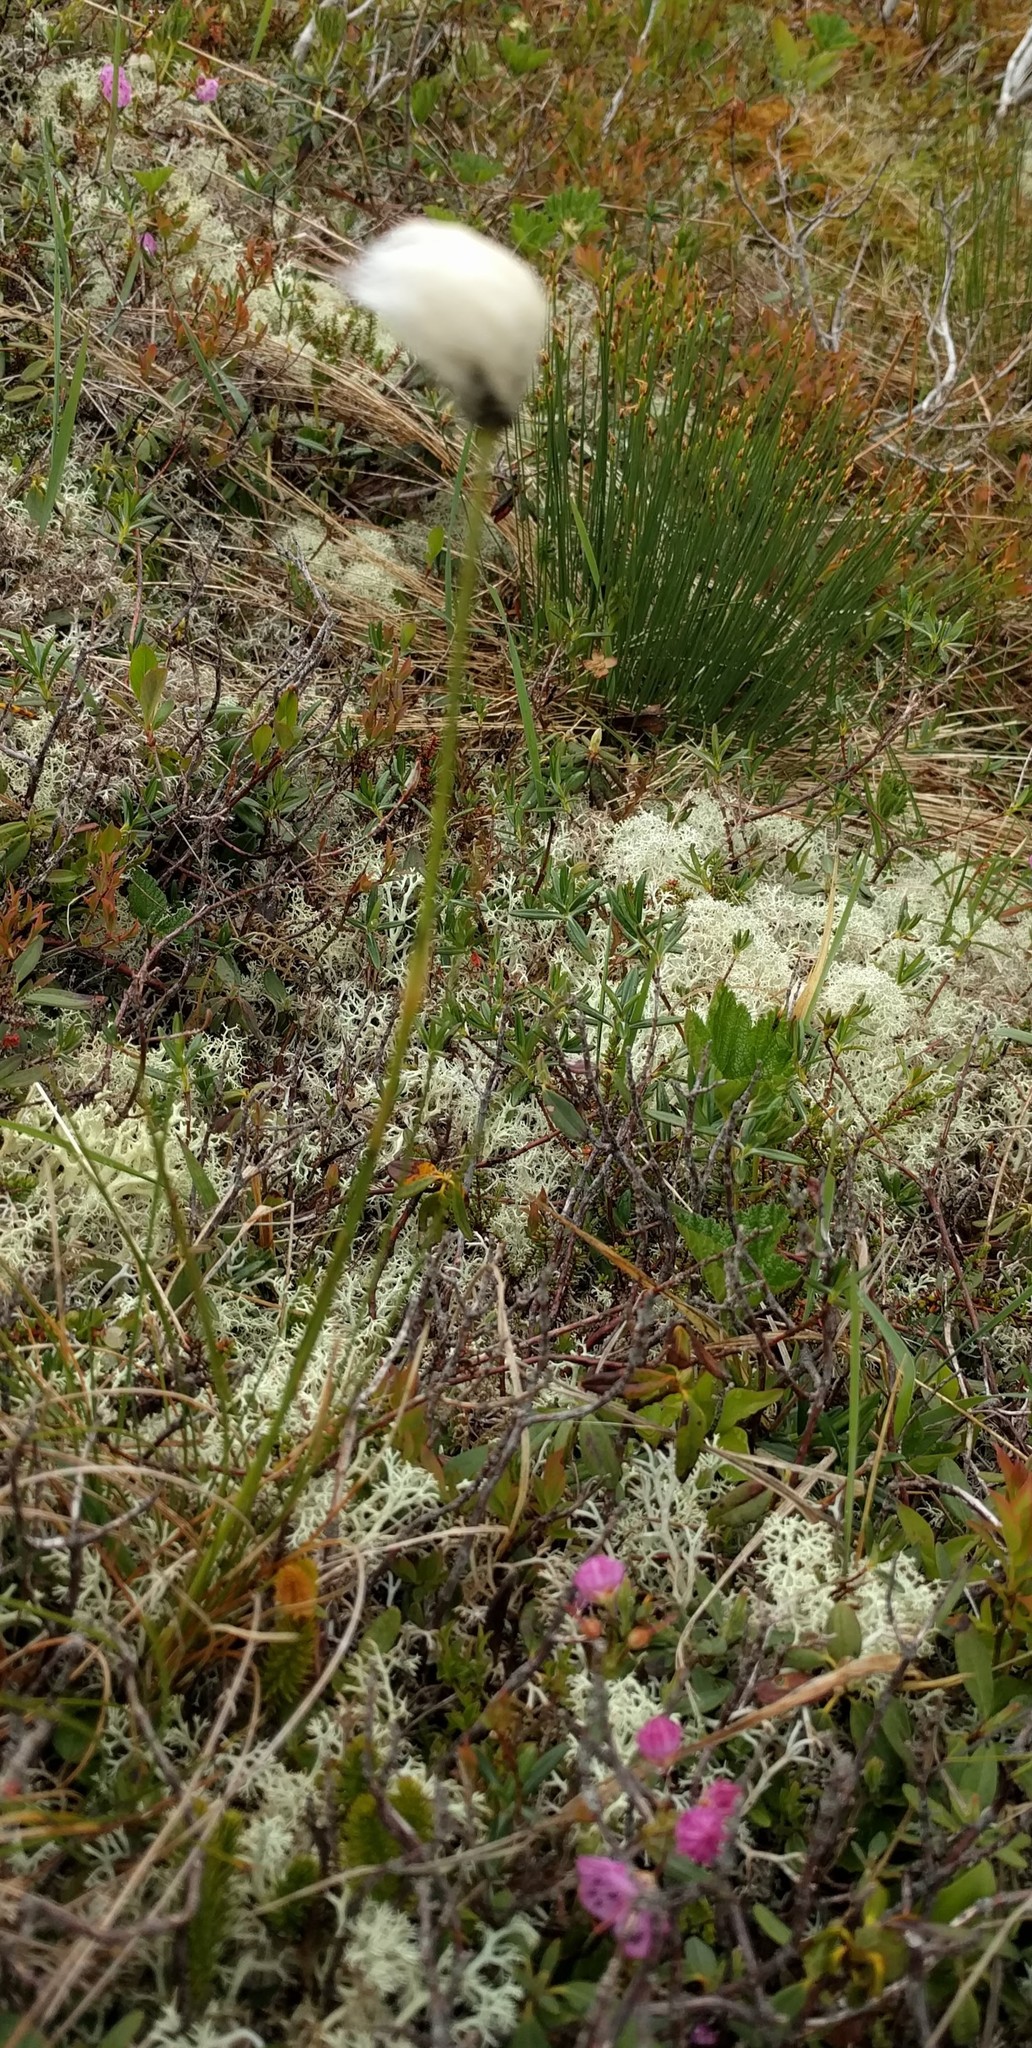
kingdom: Plantae
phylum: Tracheophyta
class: Liliopsida
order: Poales
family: Cyperaceae
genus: Eriophorum
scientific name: Eriophorum vaginatum
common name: Hare's-tail cottongrass
